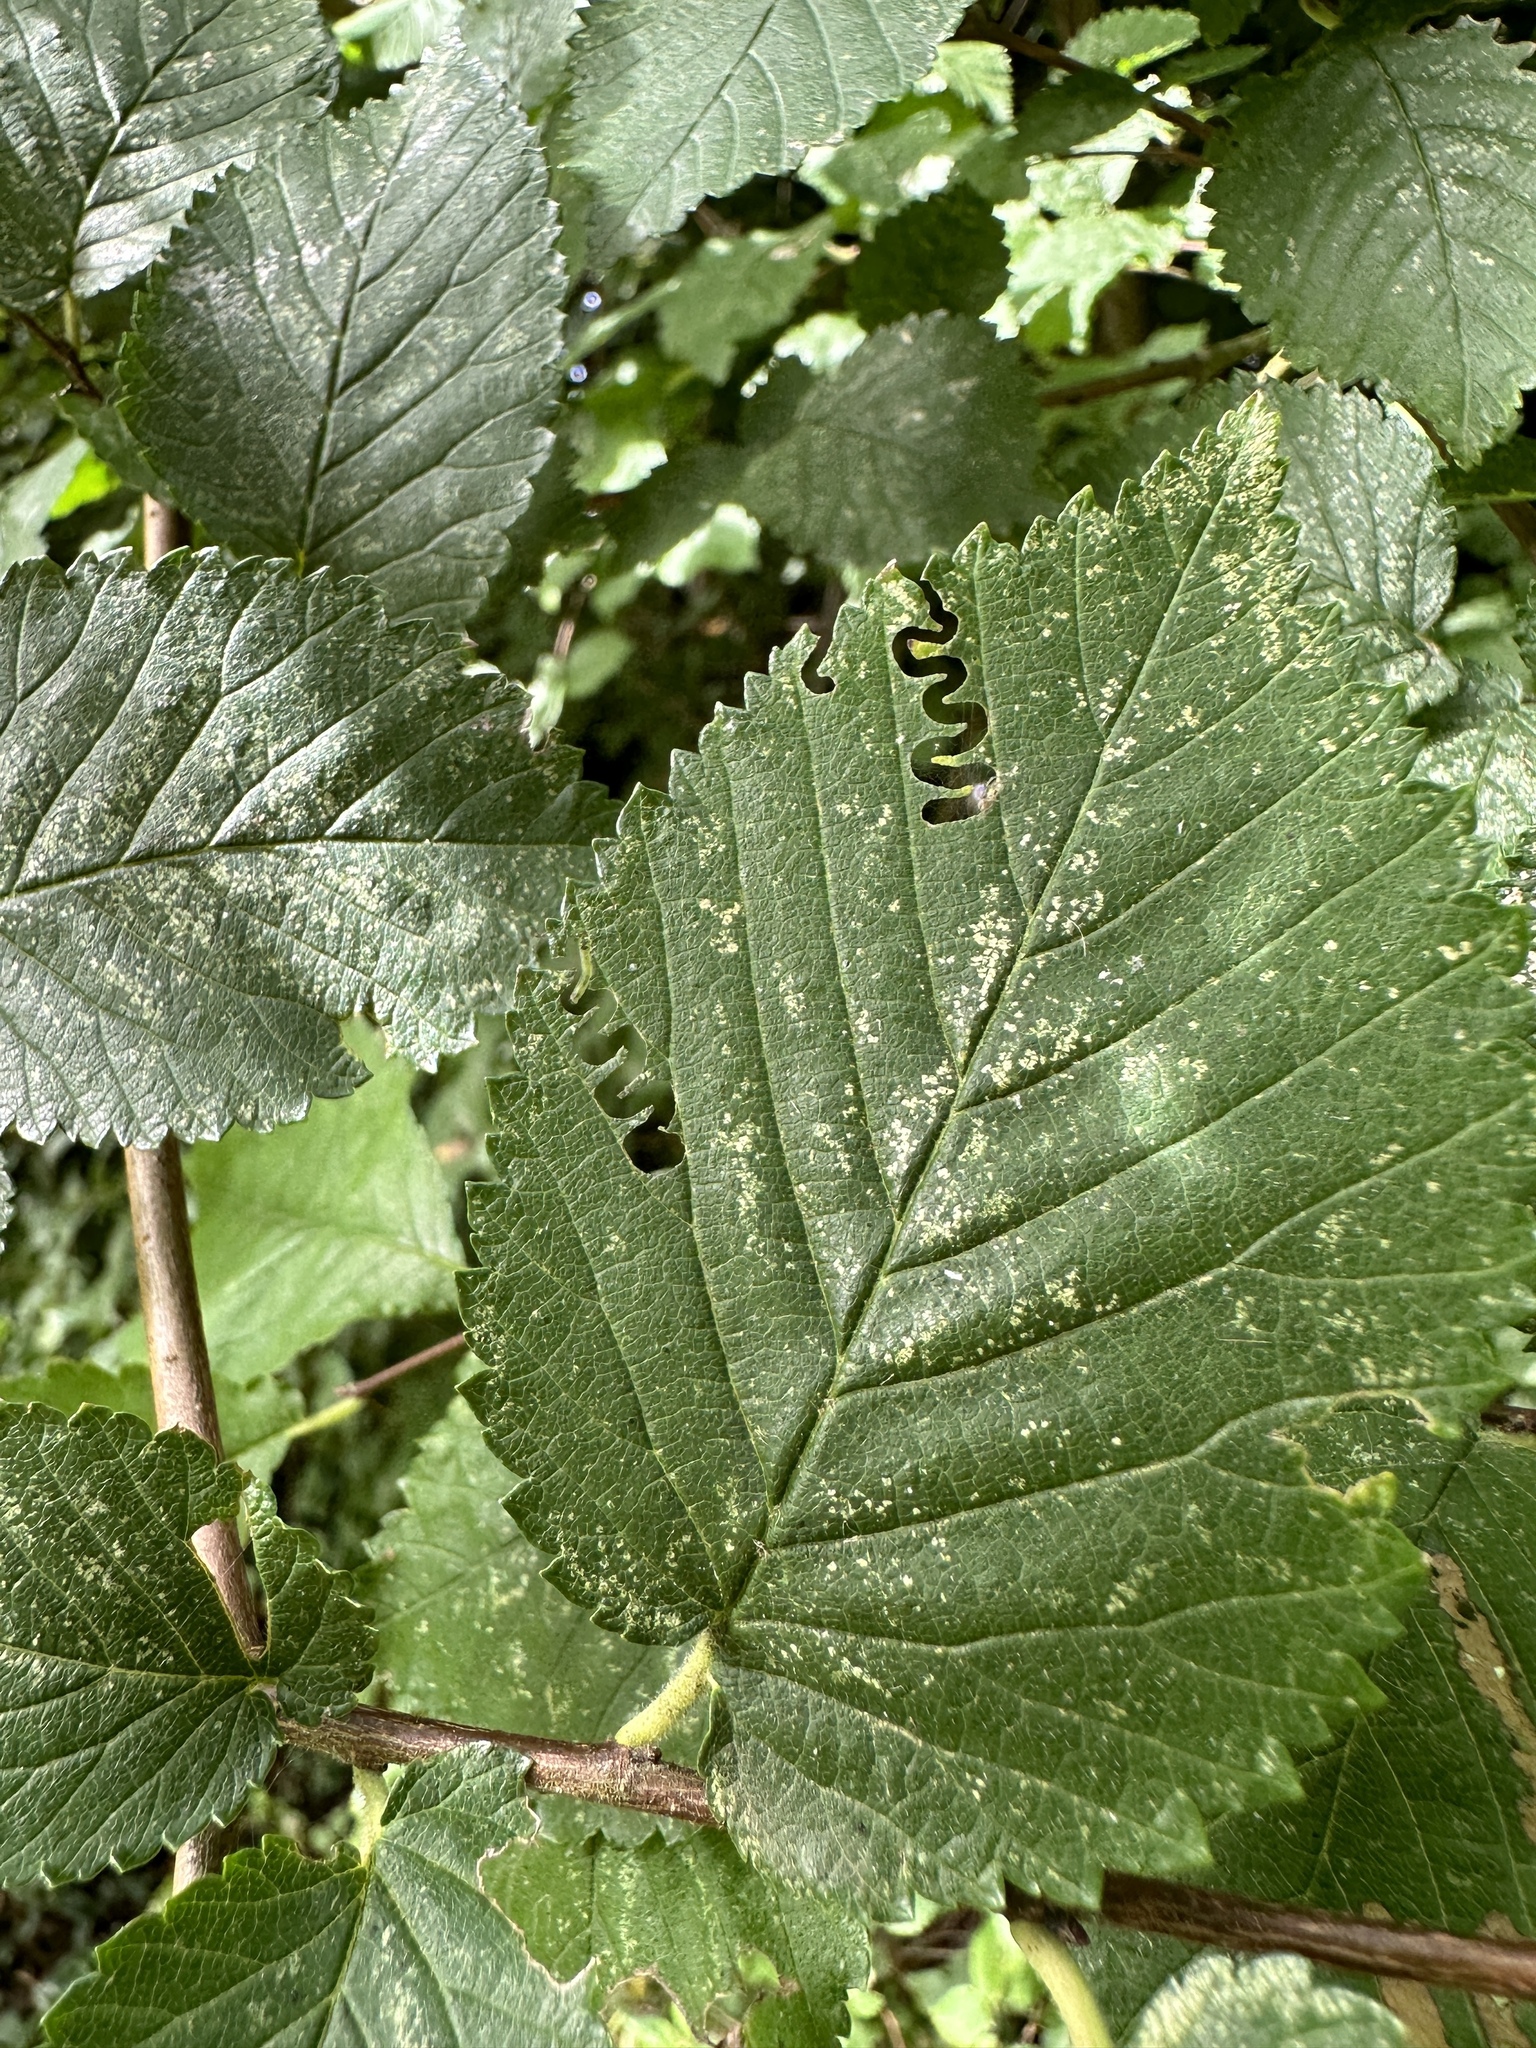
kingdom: Animalia
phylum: Arthropoda
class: Insecta
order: Hymenoptera
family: Argidae
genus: Aproceros
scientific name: Aproceros leucopoda
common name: Zig-zag elm sawfly
